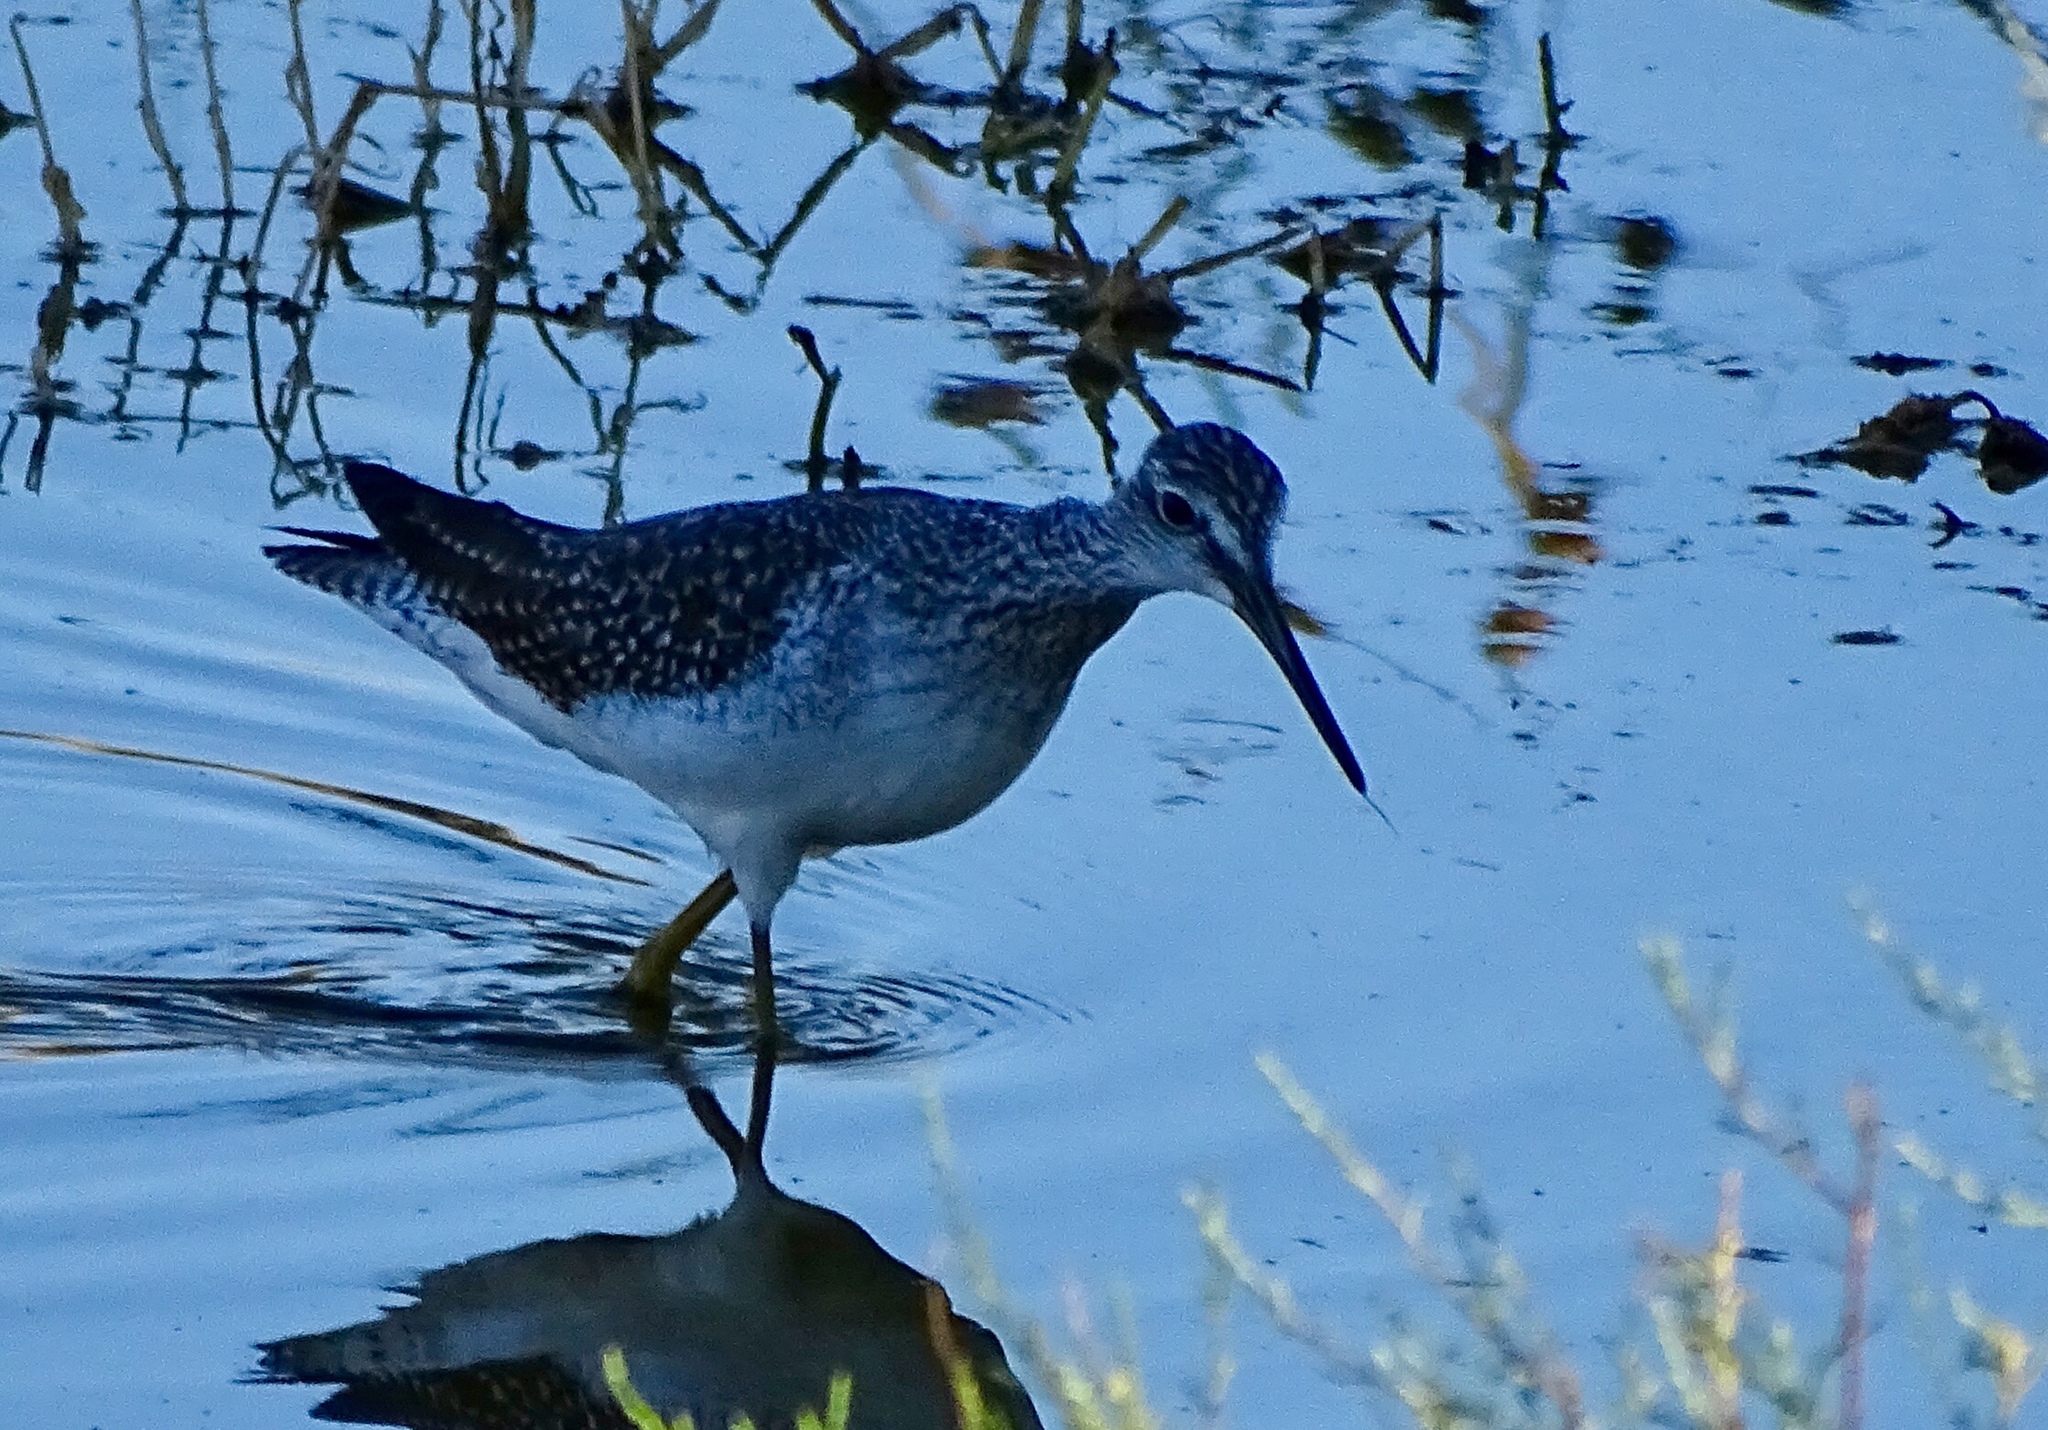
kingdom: Animalia
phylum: Chordata
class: Aves
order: Charadriiformes
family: Scolopacidae
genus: Tringa
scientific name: Tringa melanoleuca
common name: Greater yellowlegs
